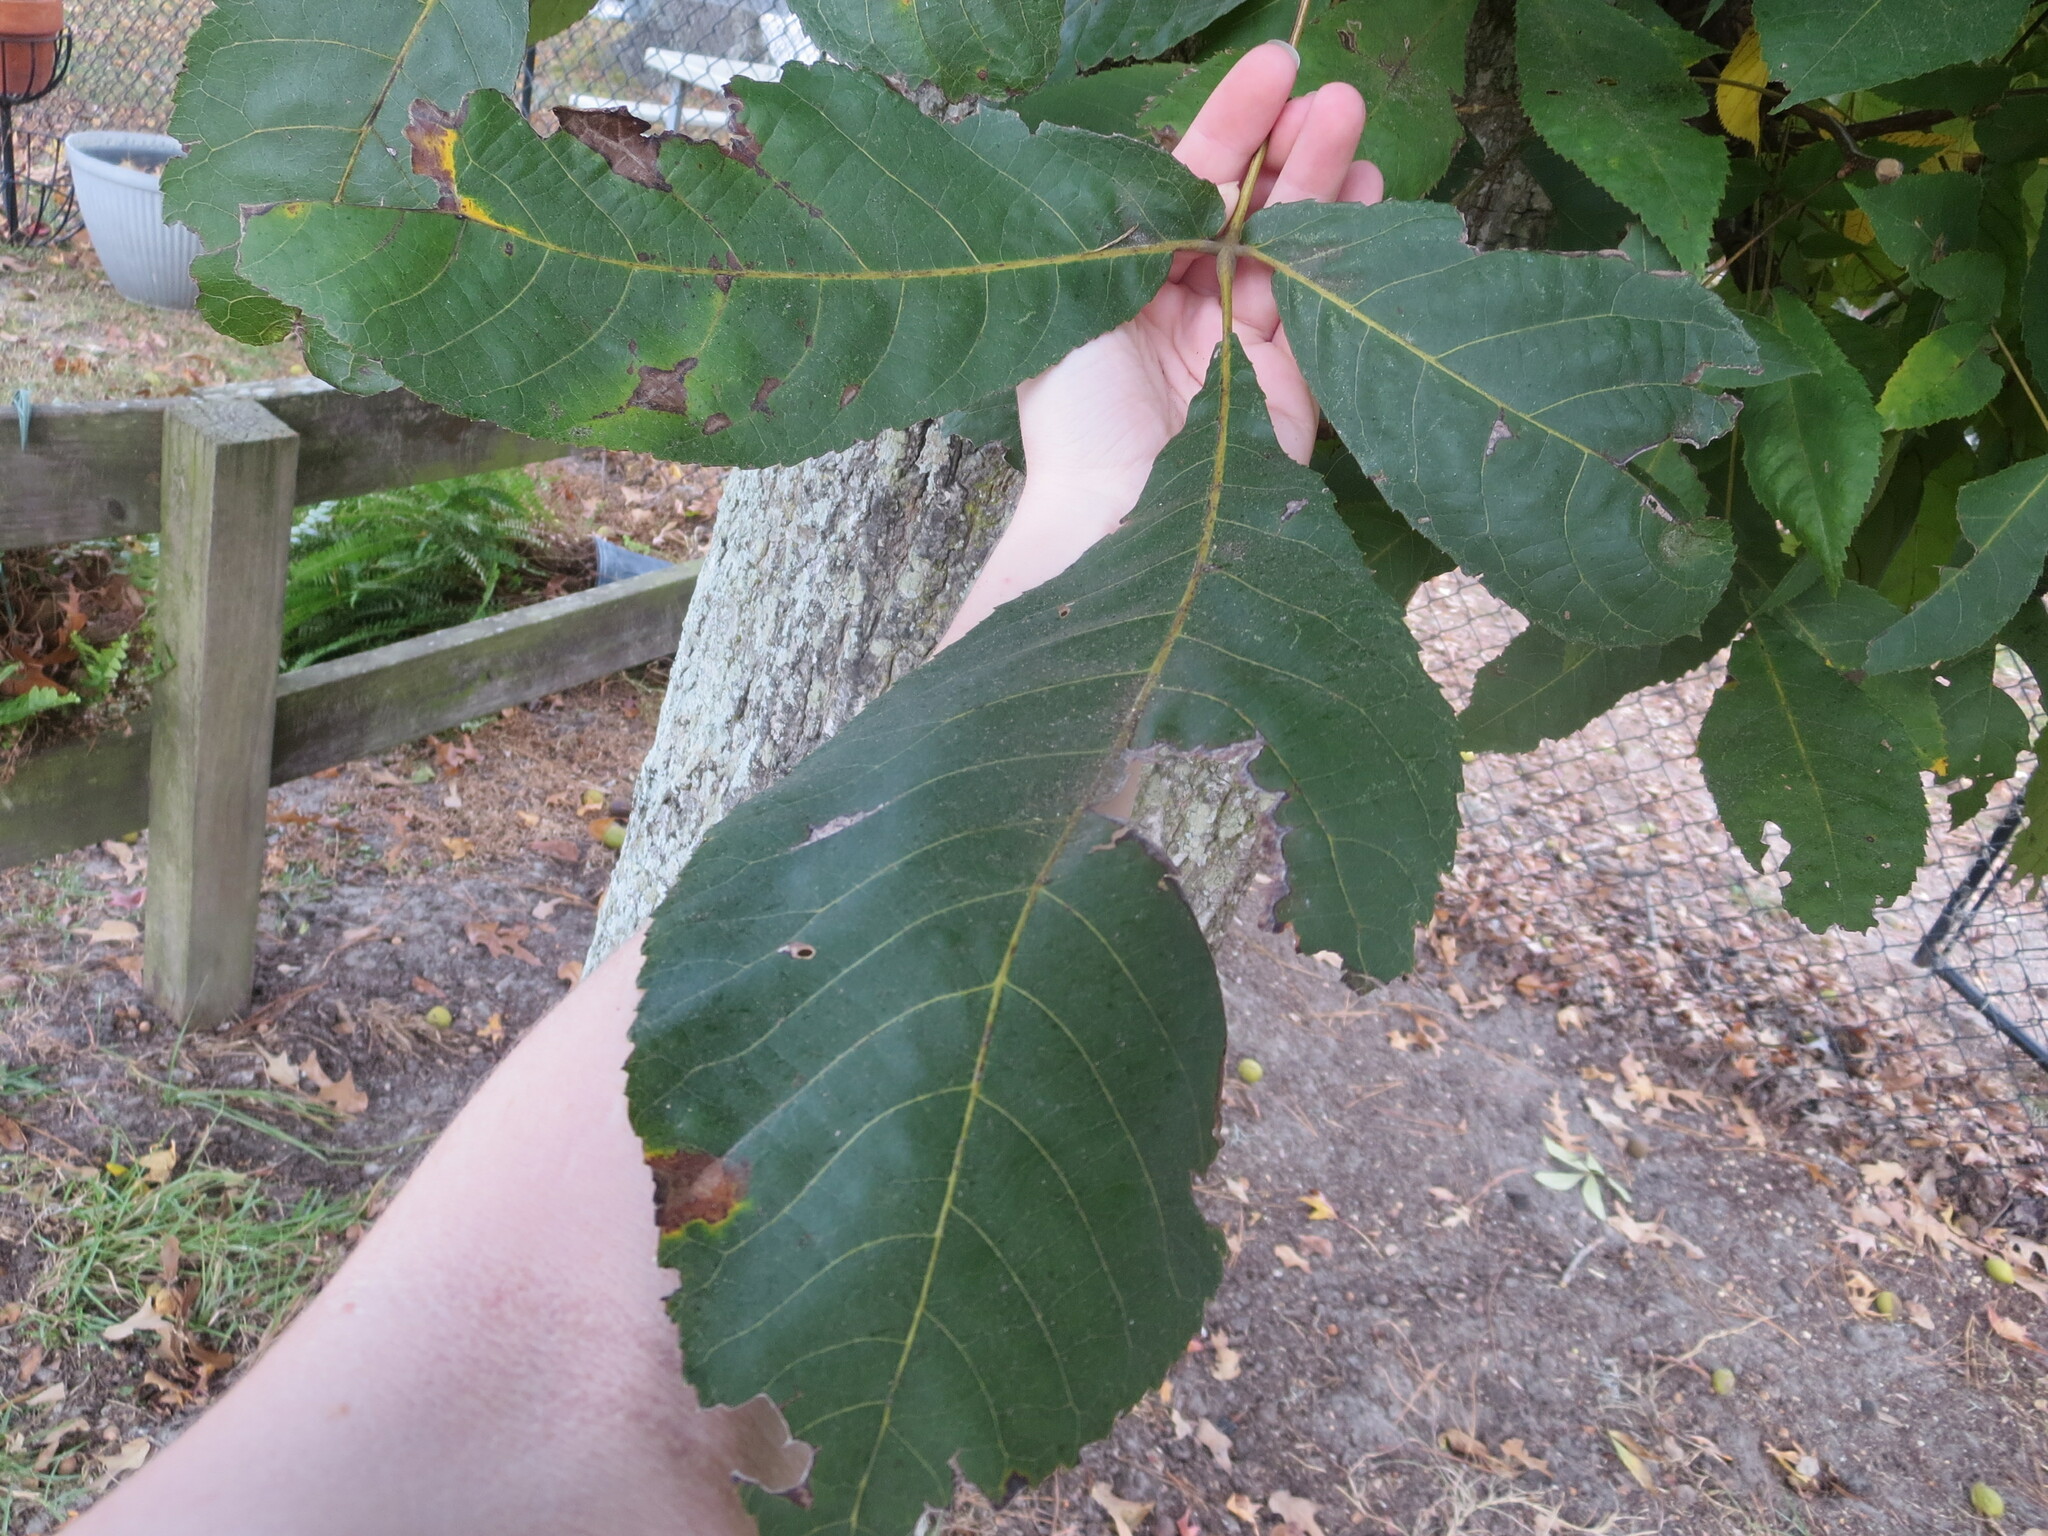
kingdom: Plantae
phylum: Tracheophyta
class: Magnoliopsida
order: Fagales
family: Juglandaceae
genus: Carya
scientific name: Carya glabra
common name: Pignut hickory
